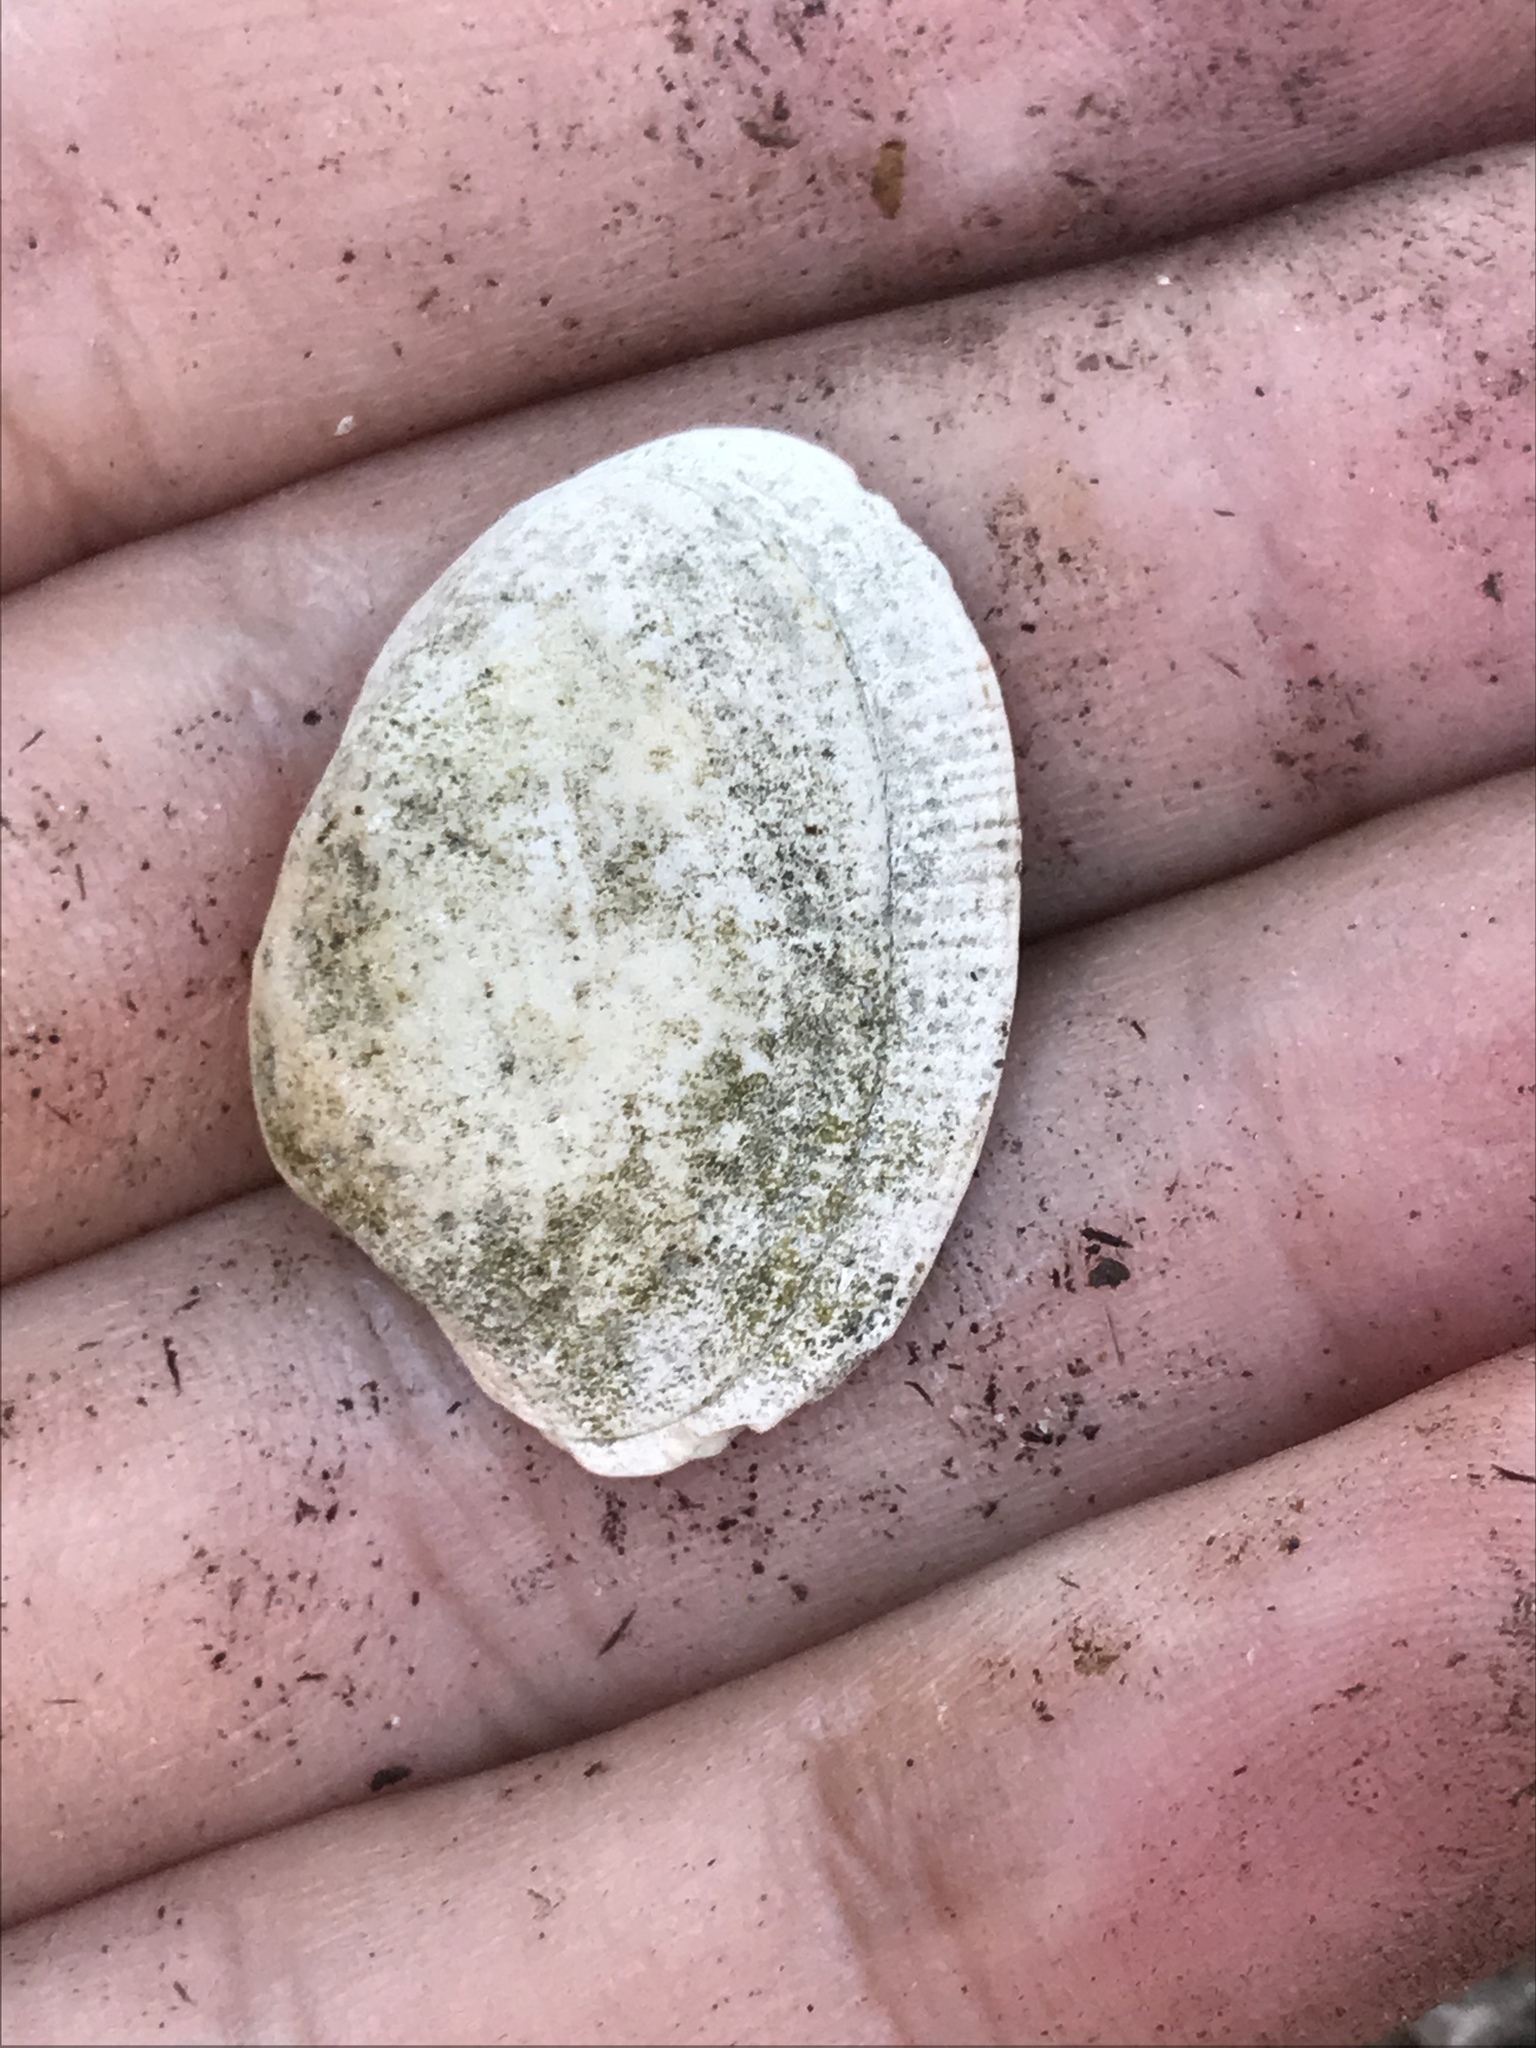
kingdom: Animalia
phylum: Mollusca
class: Bivalvia
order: Venerida
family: Veneridae
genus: Ruditapes
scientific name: Ruditapes philippinarum
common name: Manila clam
